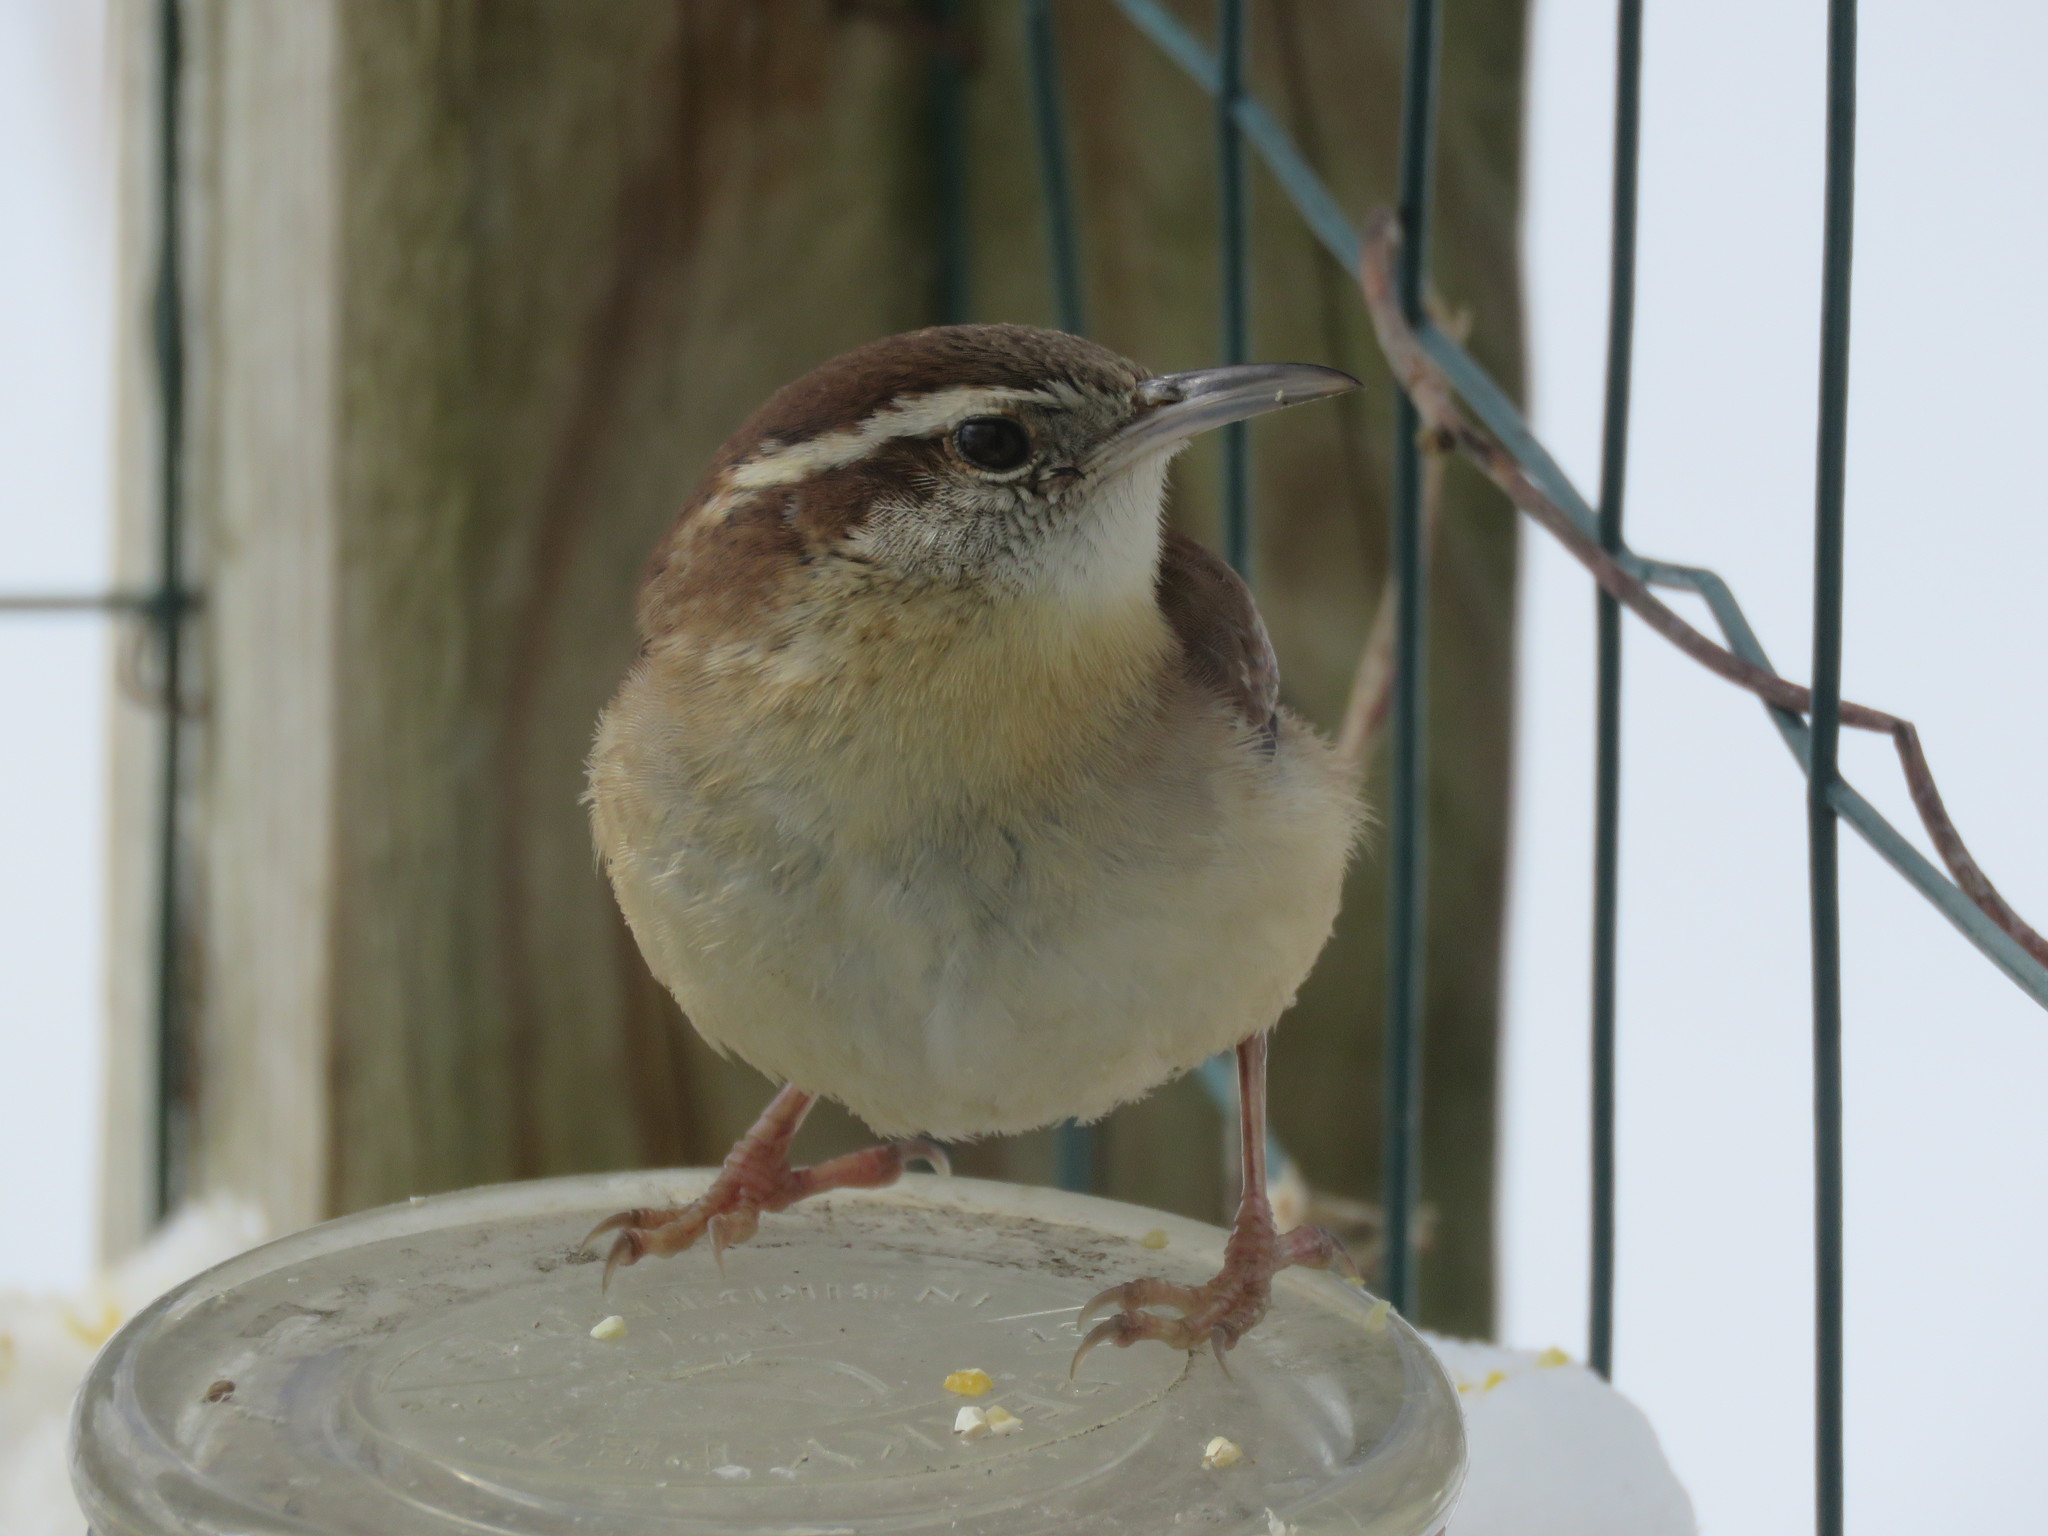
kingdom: Animalia
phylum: Chordata
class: Aves
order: Passeriformes
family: Troglodytidae
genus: Thryothorus
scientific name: Thryothorus ludovicianus
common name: Carolina wren
